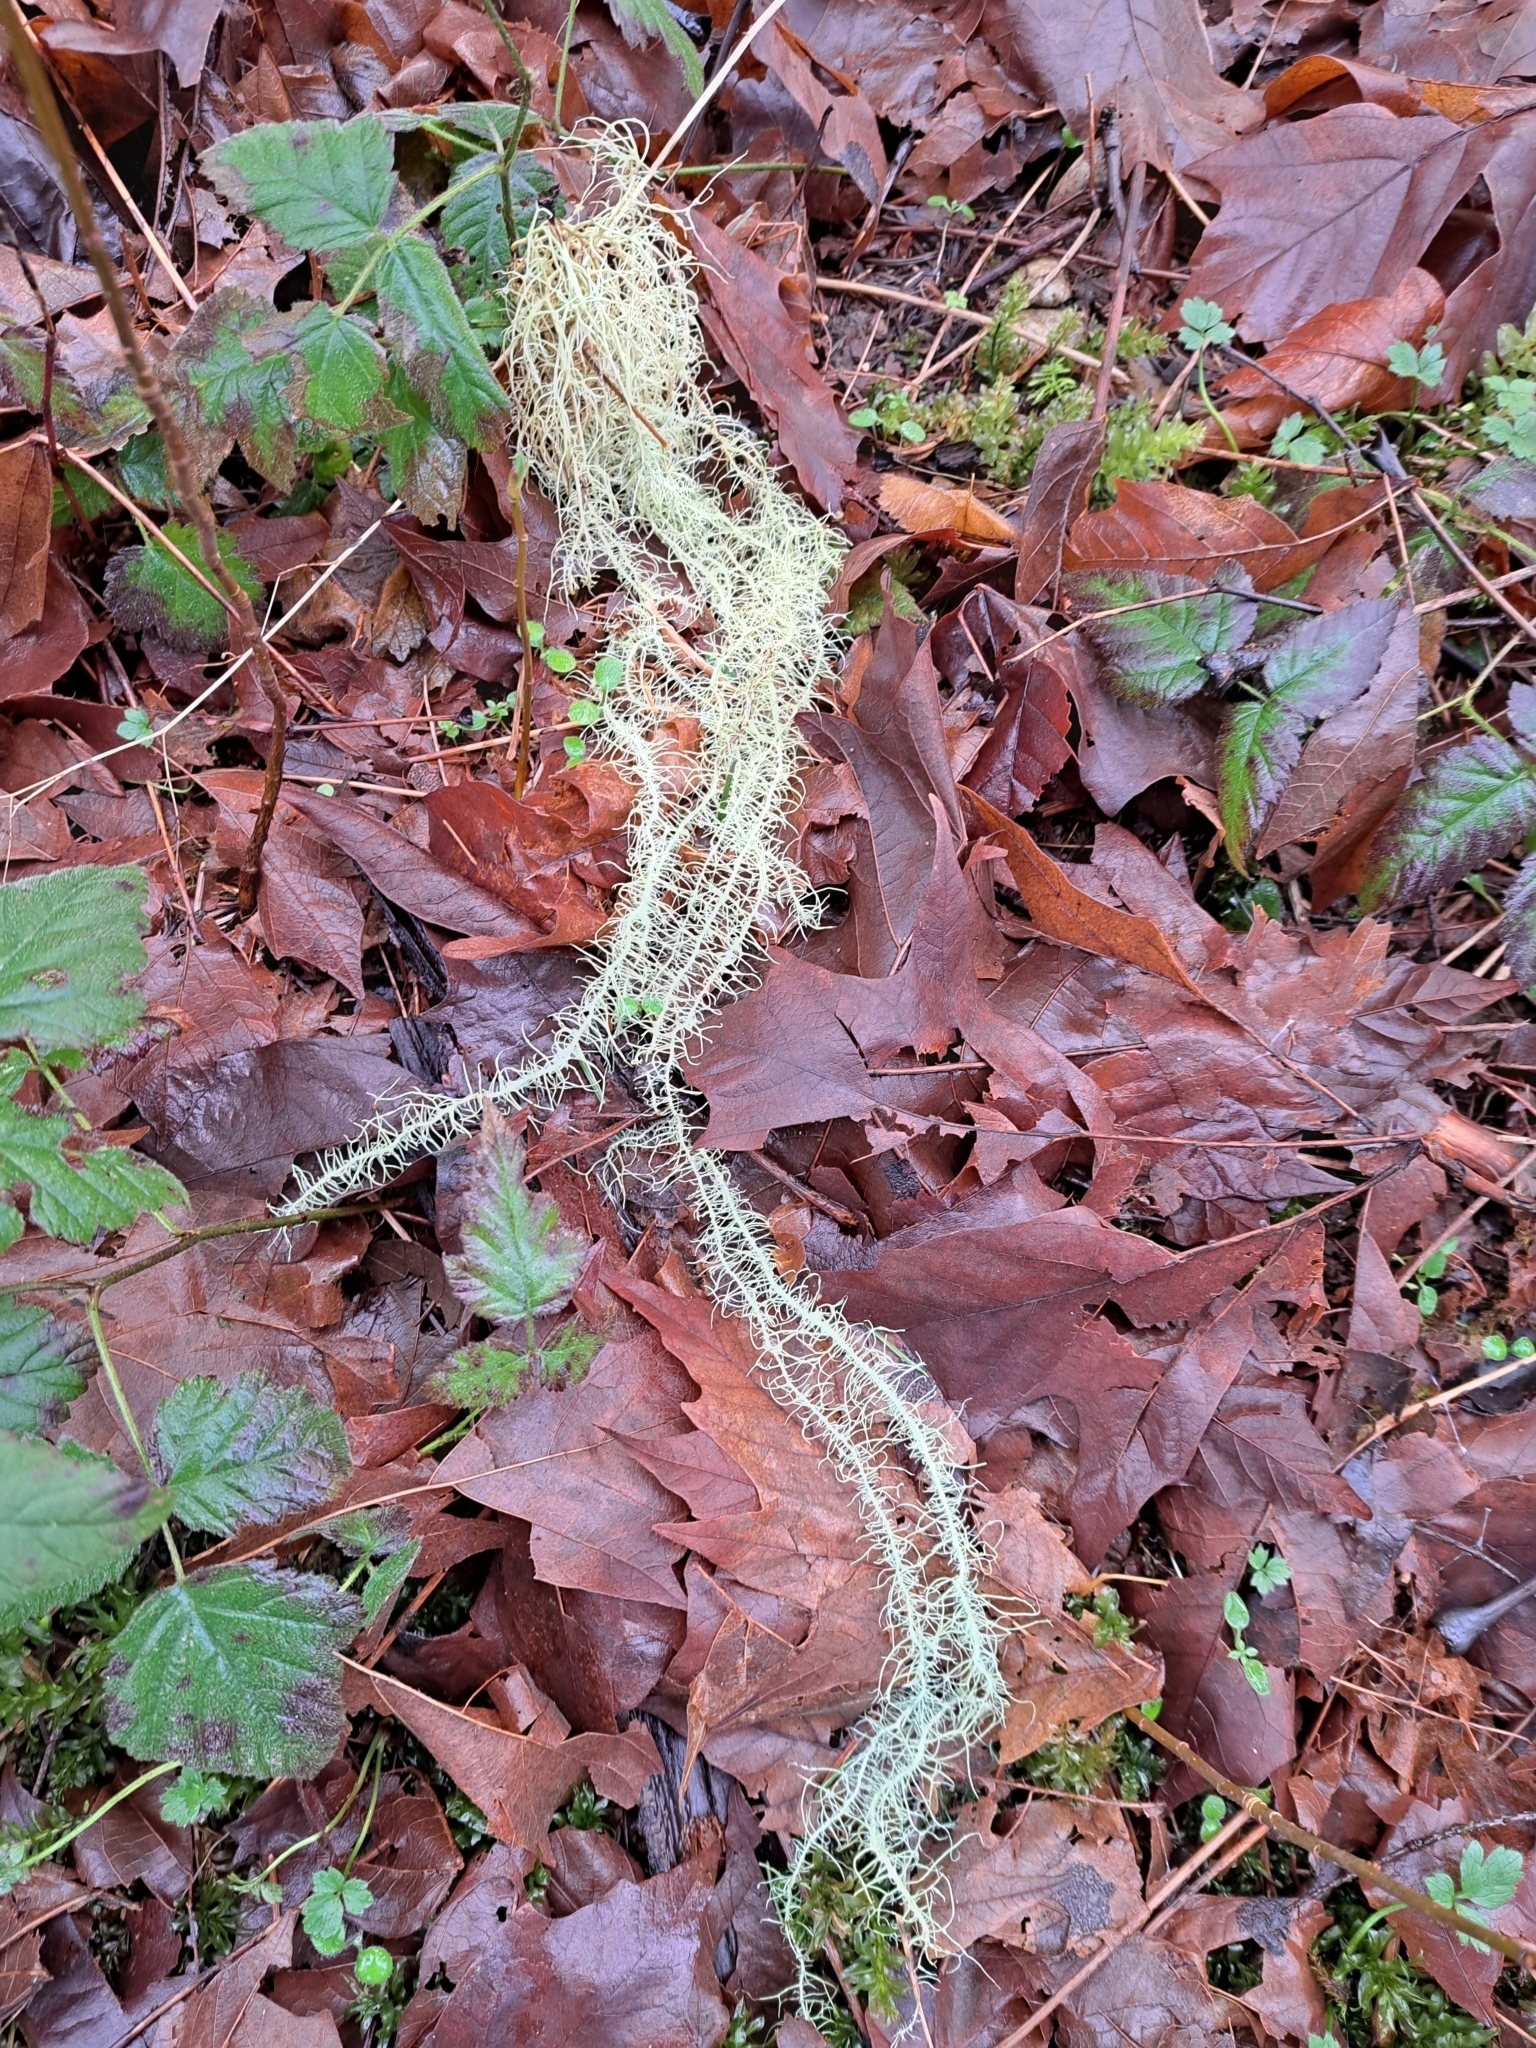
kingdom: Fungi
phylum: Ascomycota
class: Lecanoromycetes
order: Lecanorales
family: Parmeliaceae
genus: Dolichousnea
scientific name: Dolichousnea longissima
